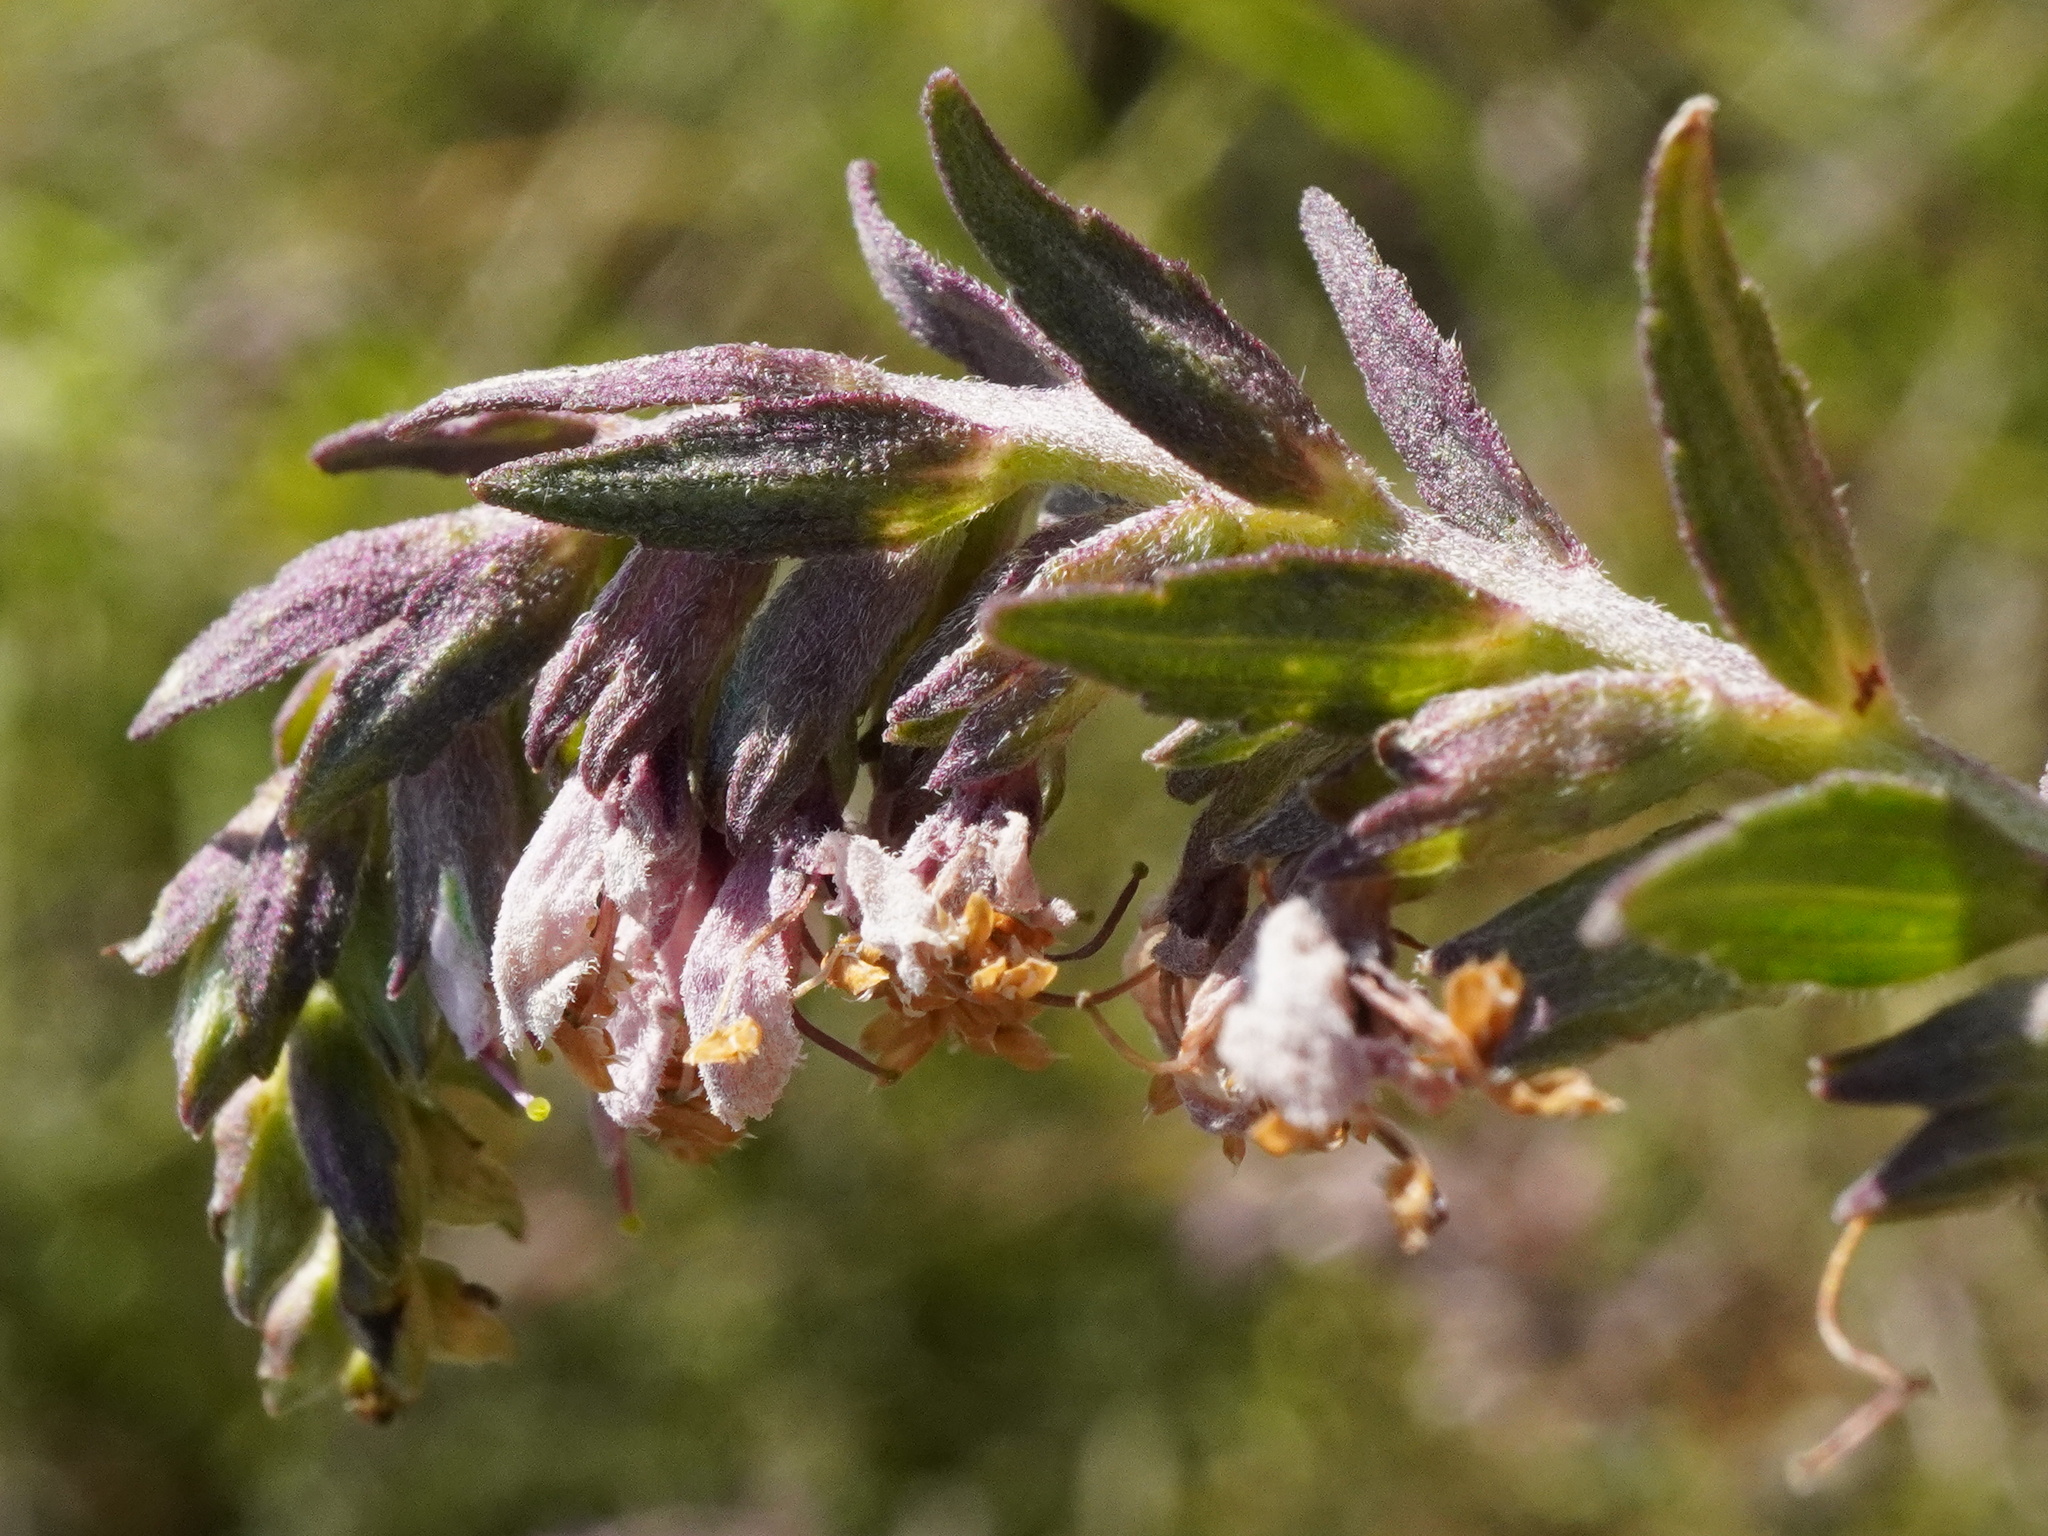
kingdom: Plantae
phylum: Tracheophyta
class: Magnoliopsida
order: Lamiales
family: Orobanchaceae
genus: Odontites
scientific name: Odontites vulgaris
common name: Broomrape
